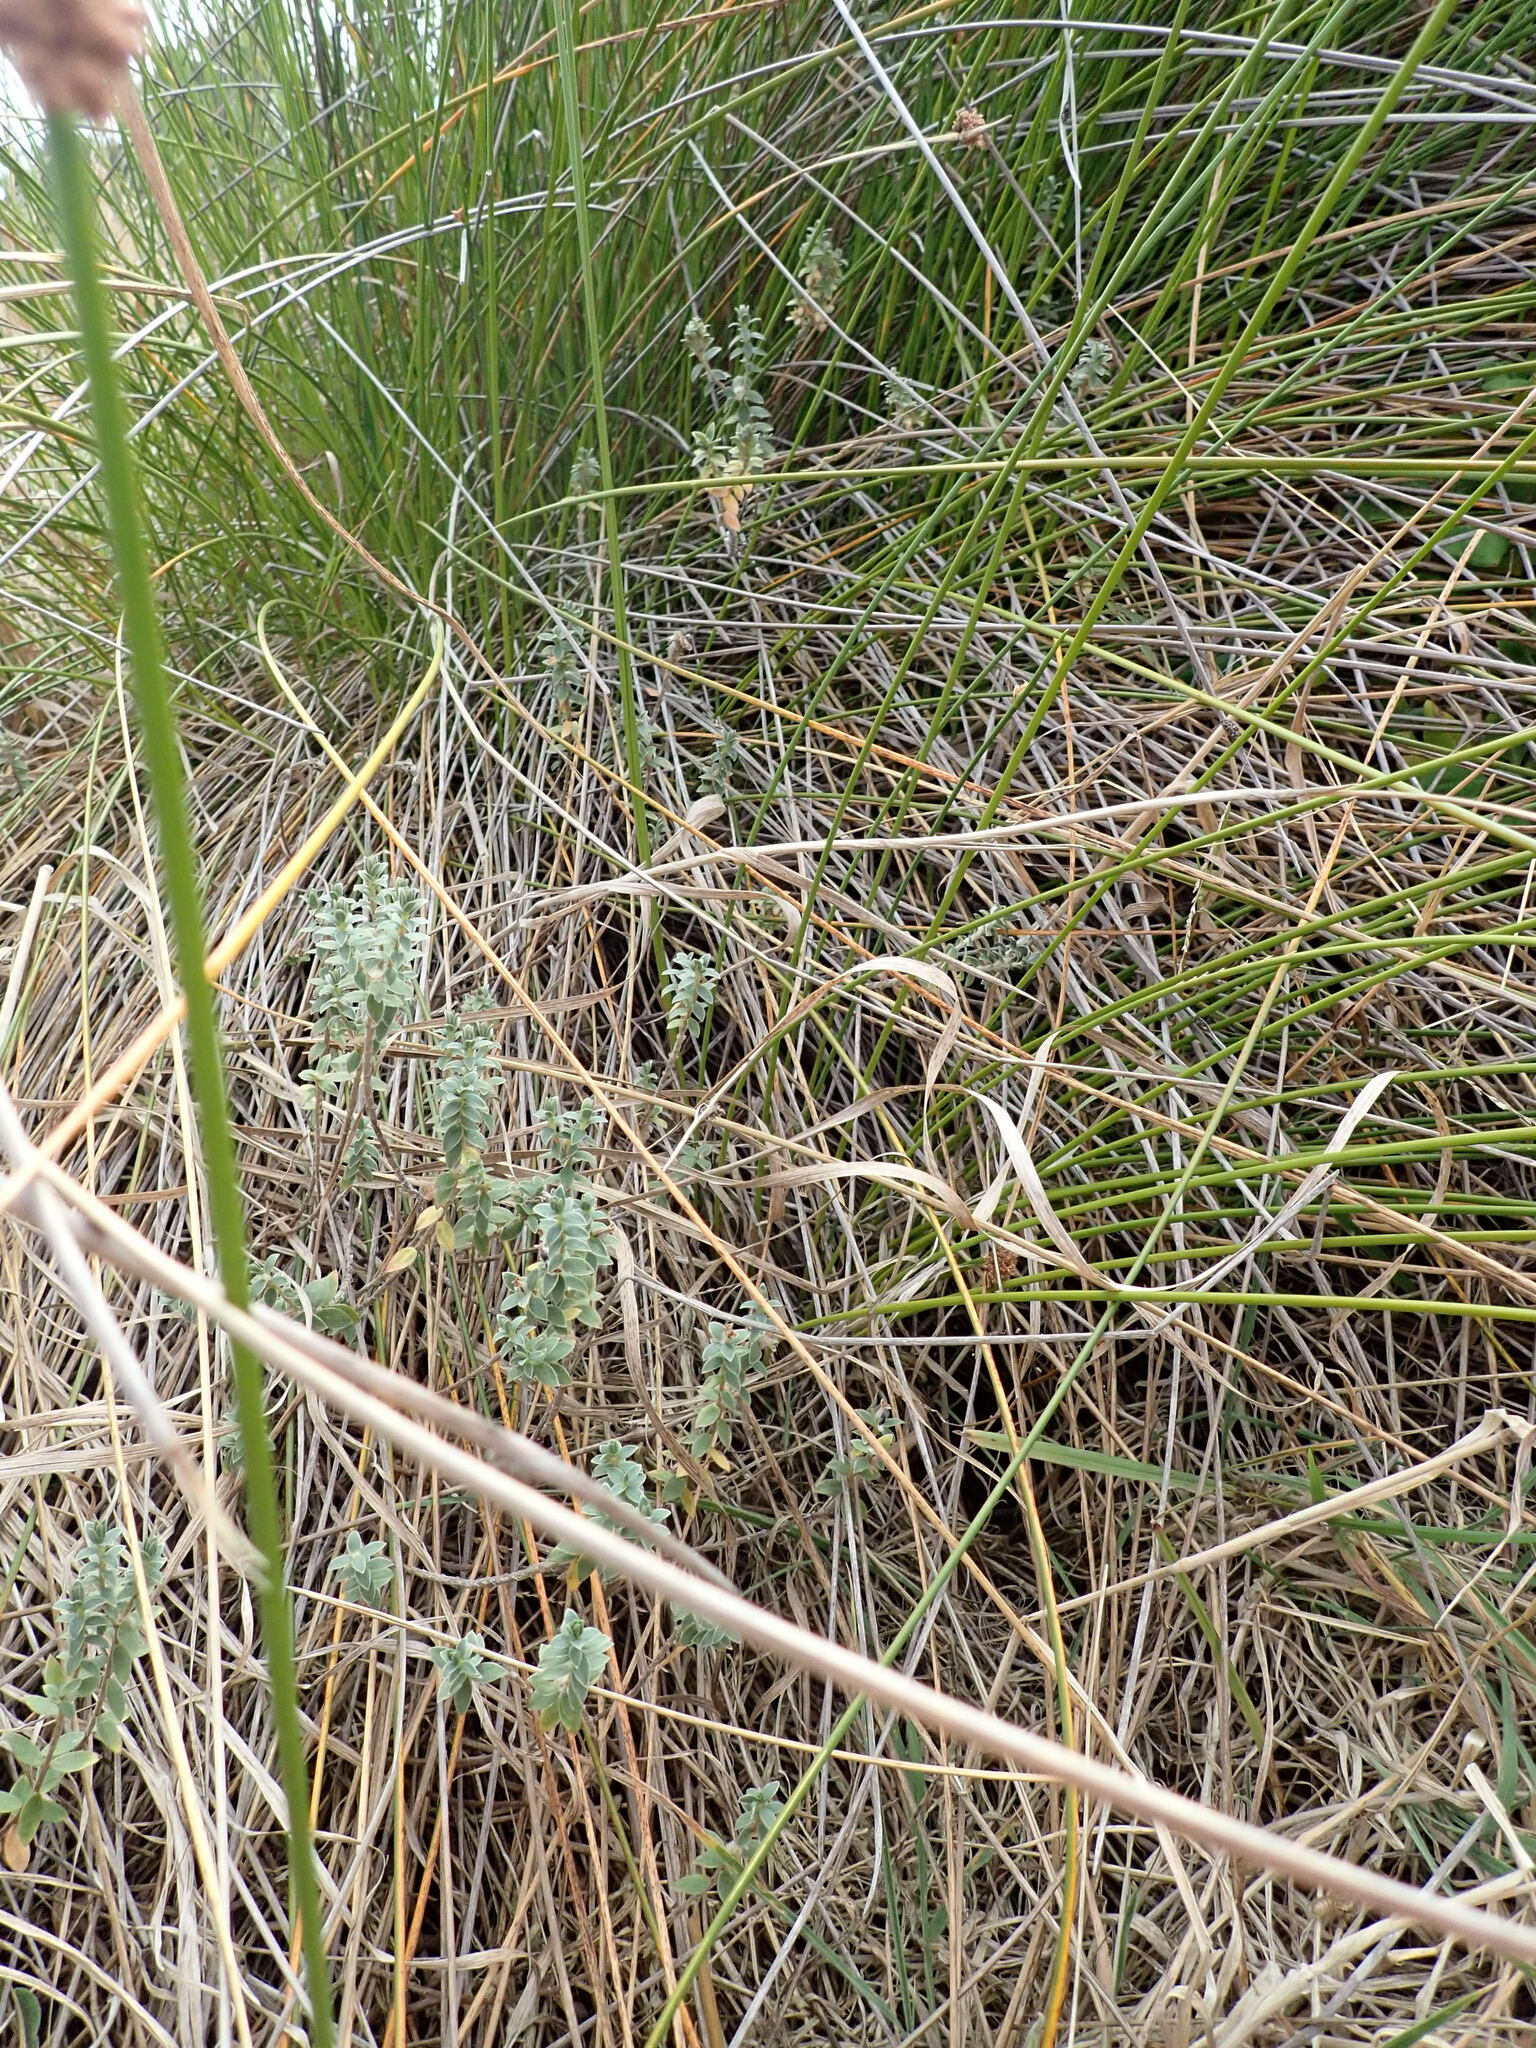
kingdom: Plantae
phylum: Tracheophyta
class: Magnoliopsida
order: Malvales
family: Thymelaeaceae
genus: Pimelea
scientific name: Pimelea villosa
